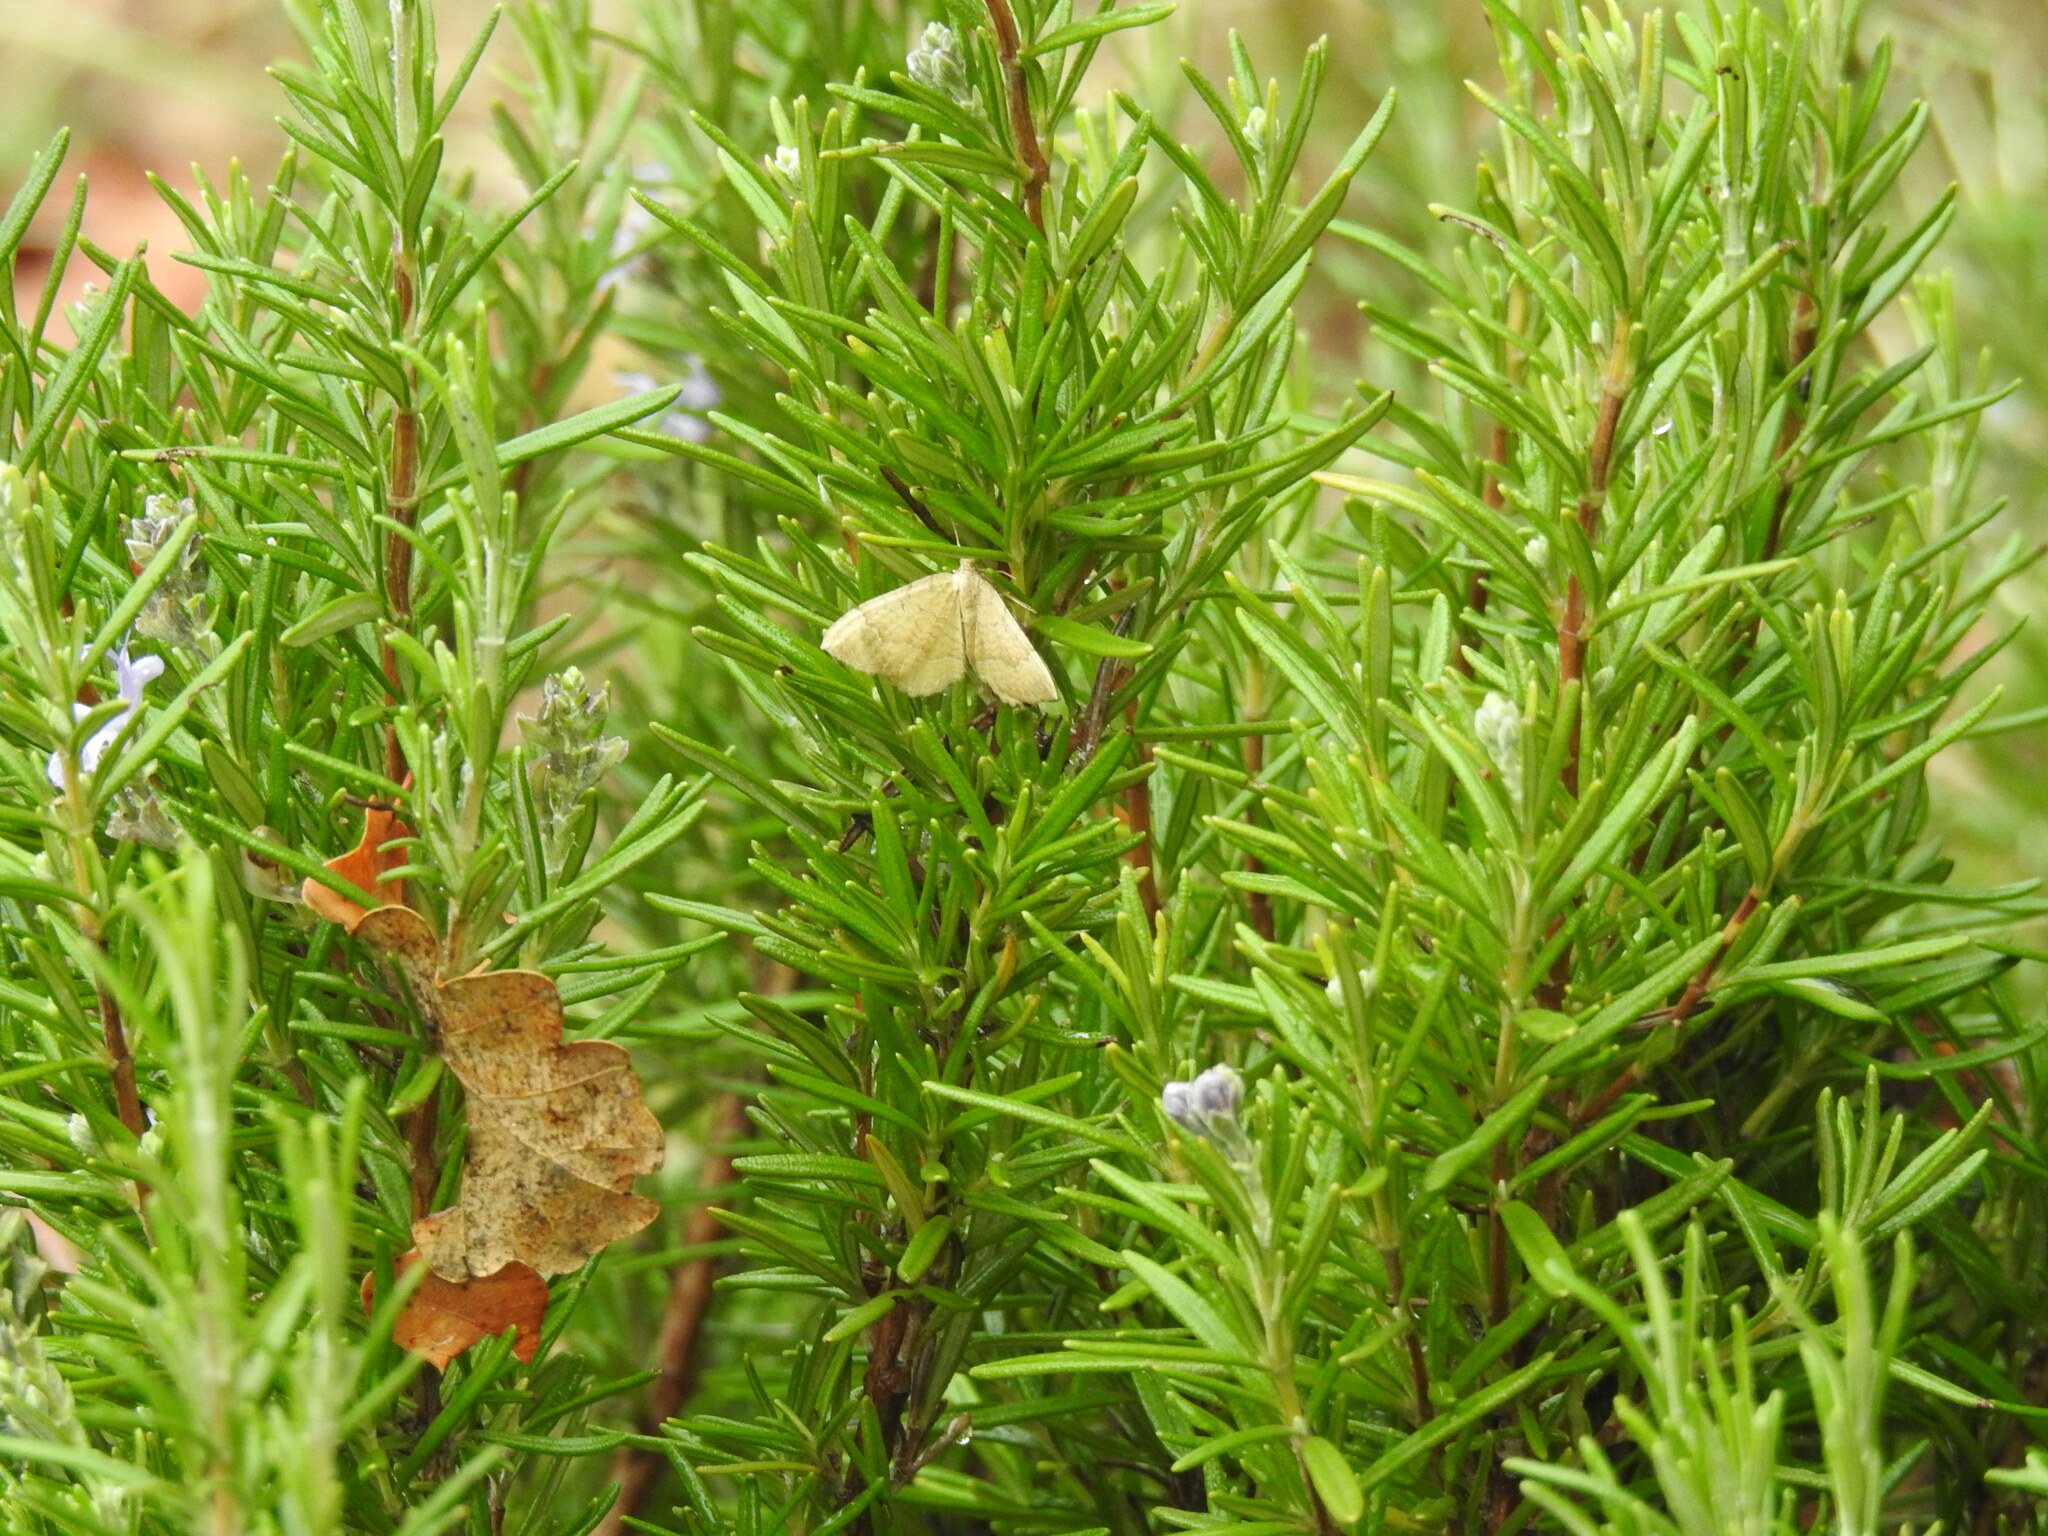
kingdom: Animalia
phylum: Arthropoda
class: Insecta
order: Lepidoptera
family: Geometridae
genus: Camptogramma
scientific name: Camptogramma bilineata
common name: Yellow shell
